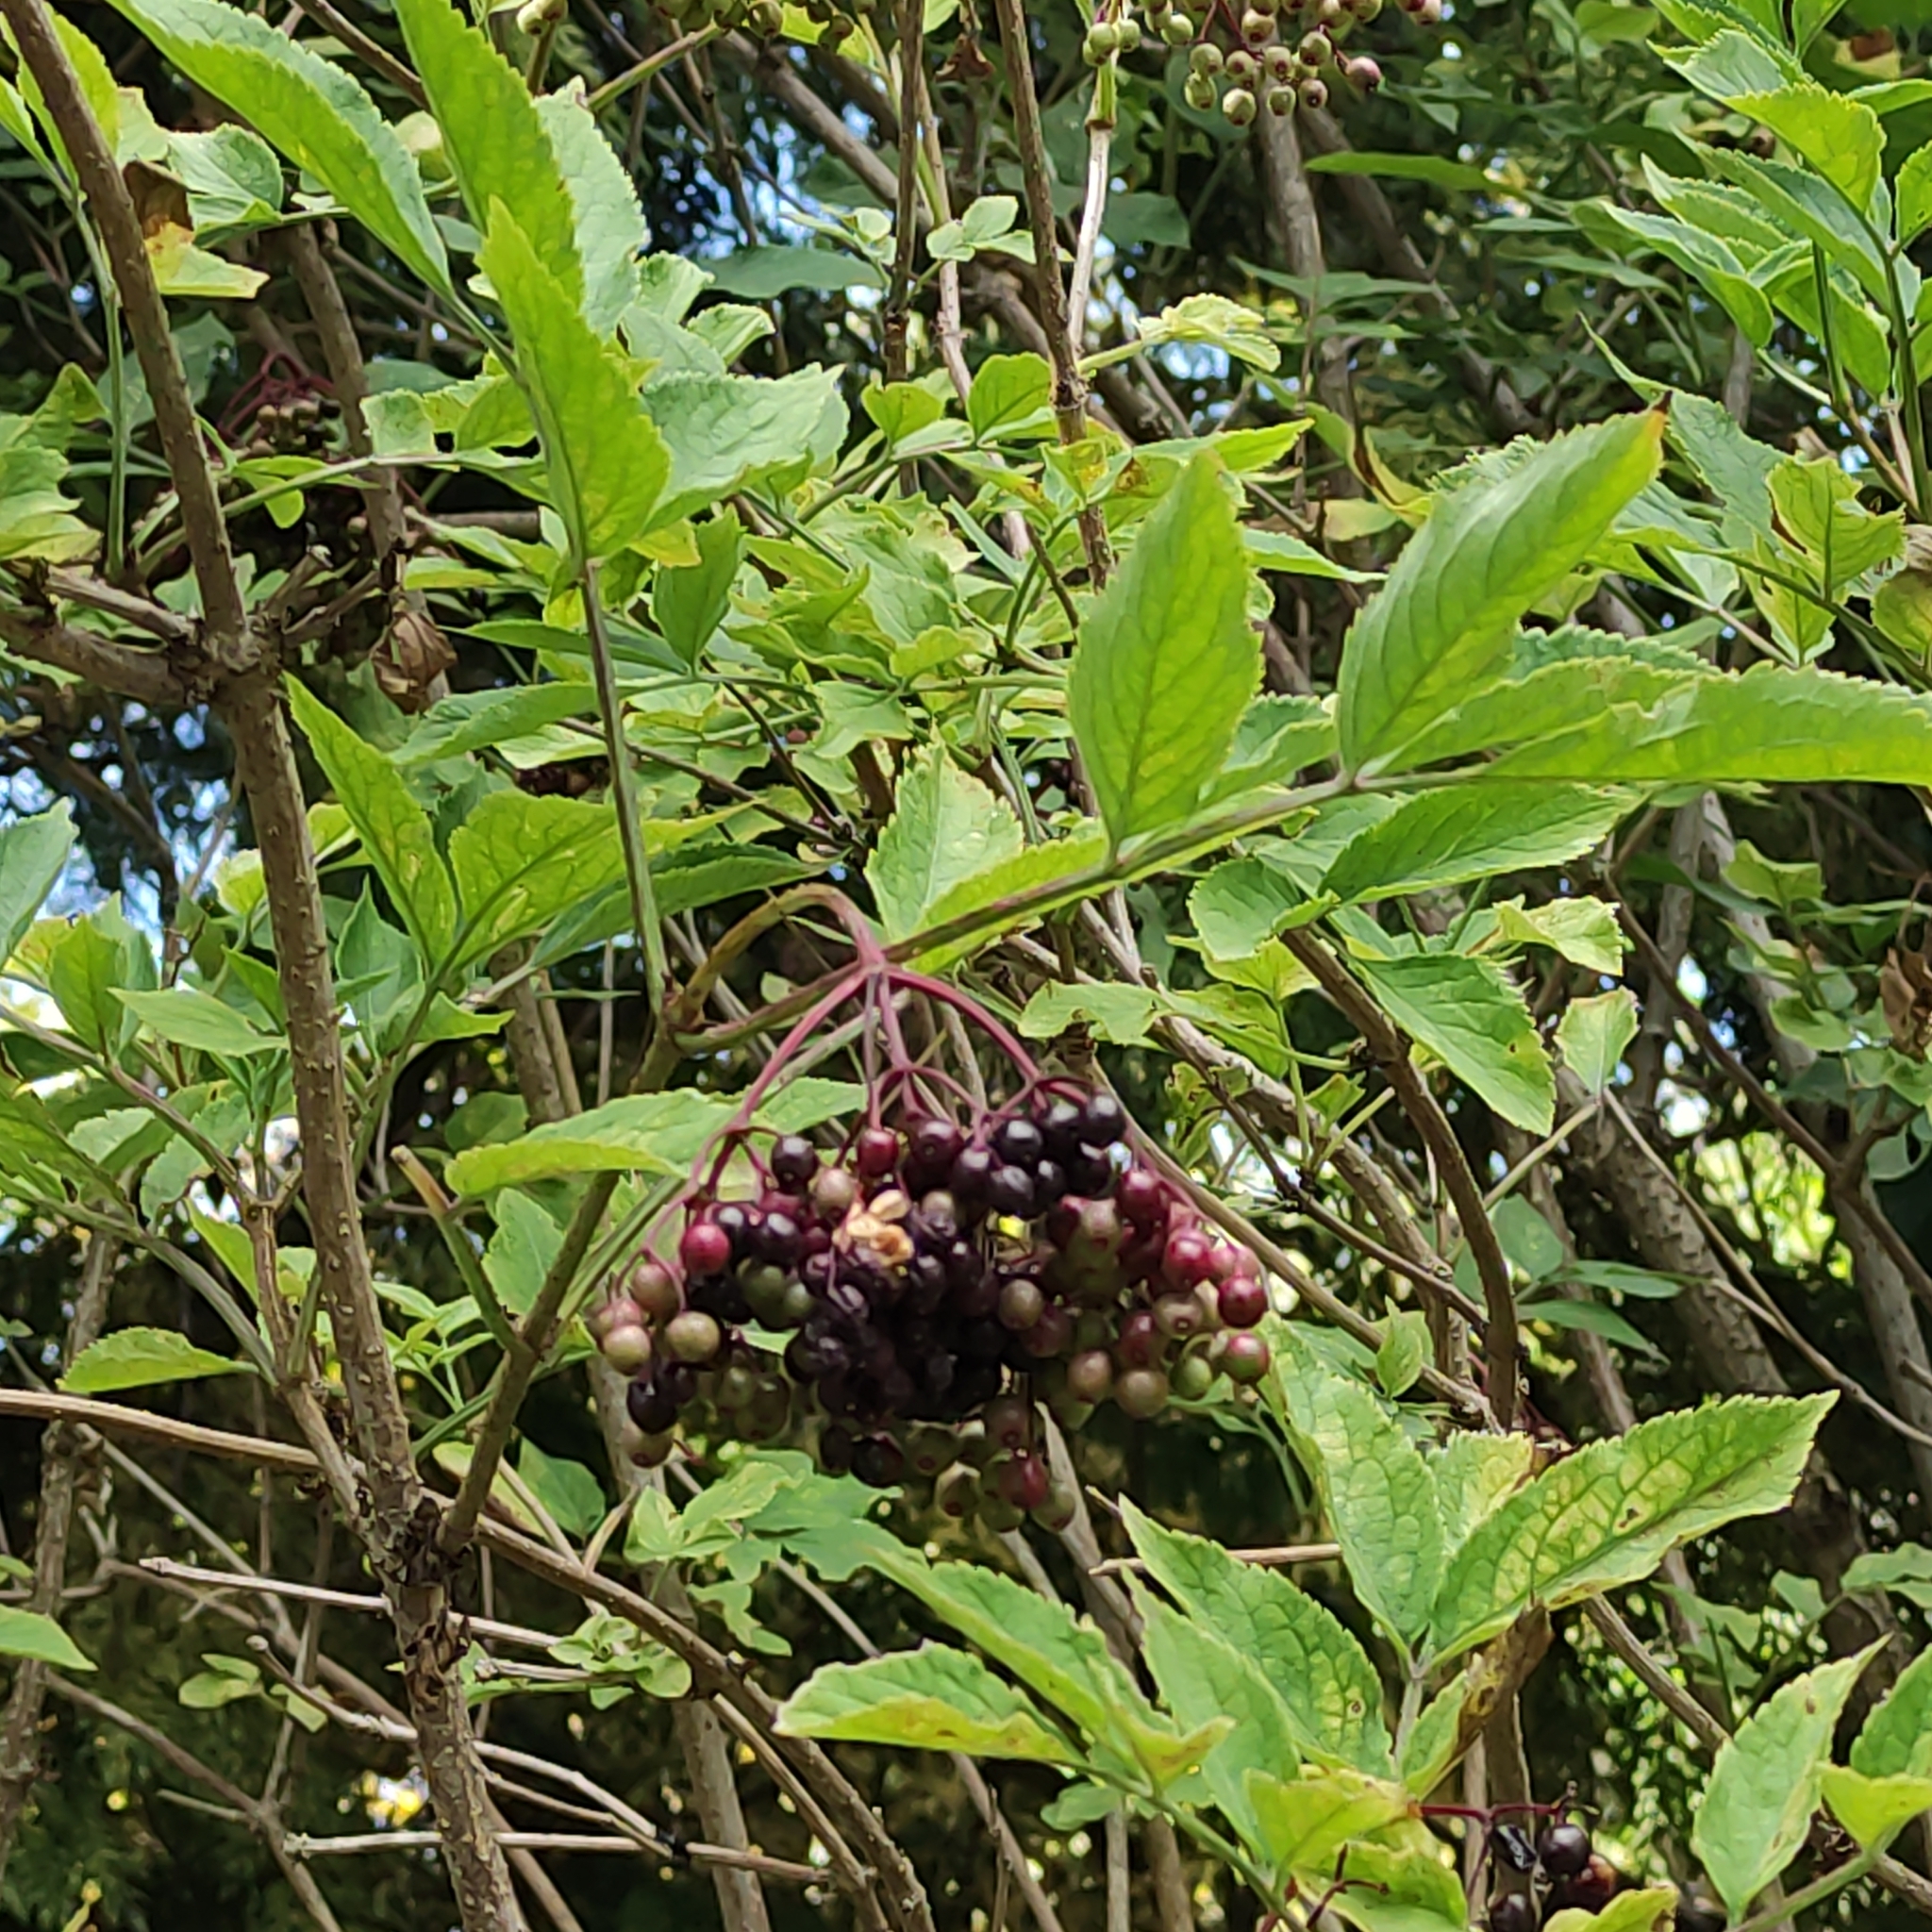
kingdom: Plantae
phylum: Tracheophyta
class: Magnoliopsida
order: Dipsacales
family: Viburnaceae
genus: Sambucus
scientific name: Sambucus nigra
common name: Elder
